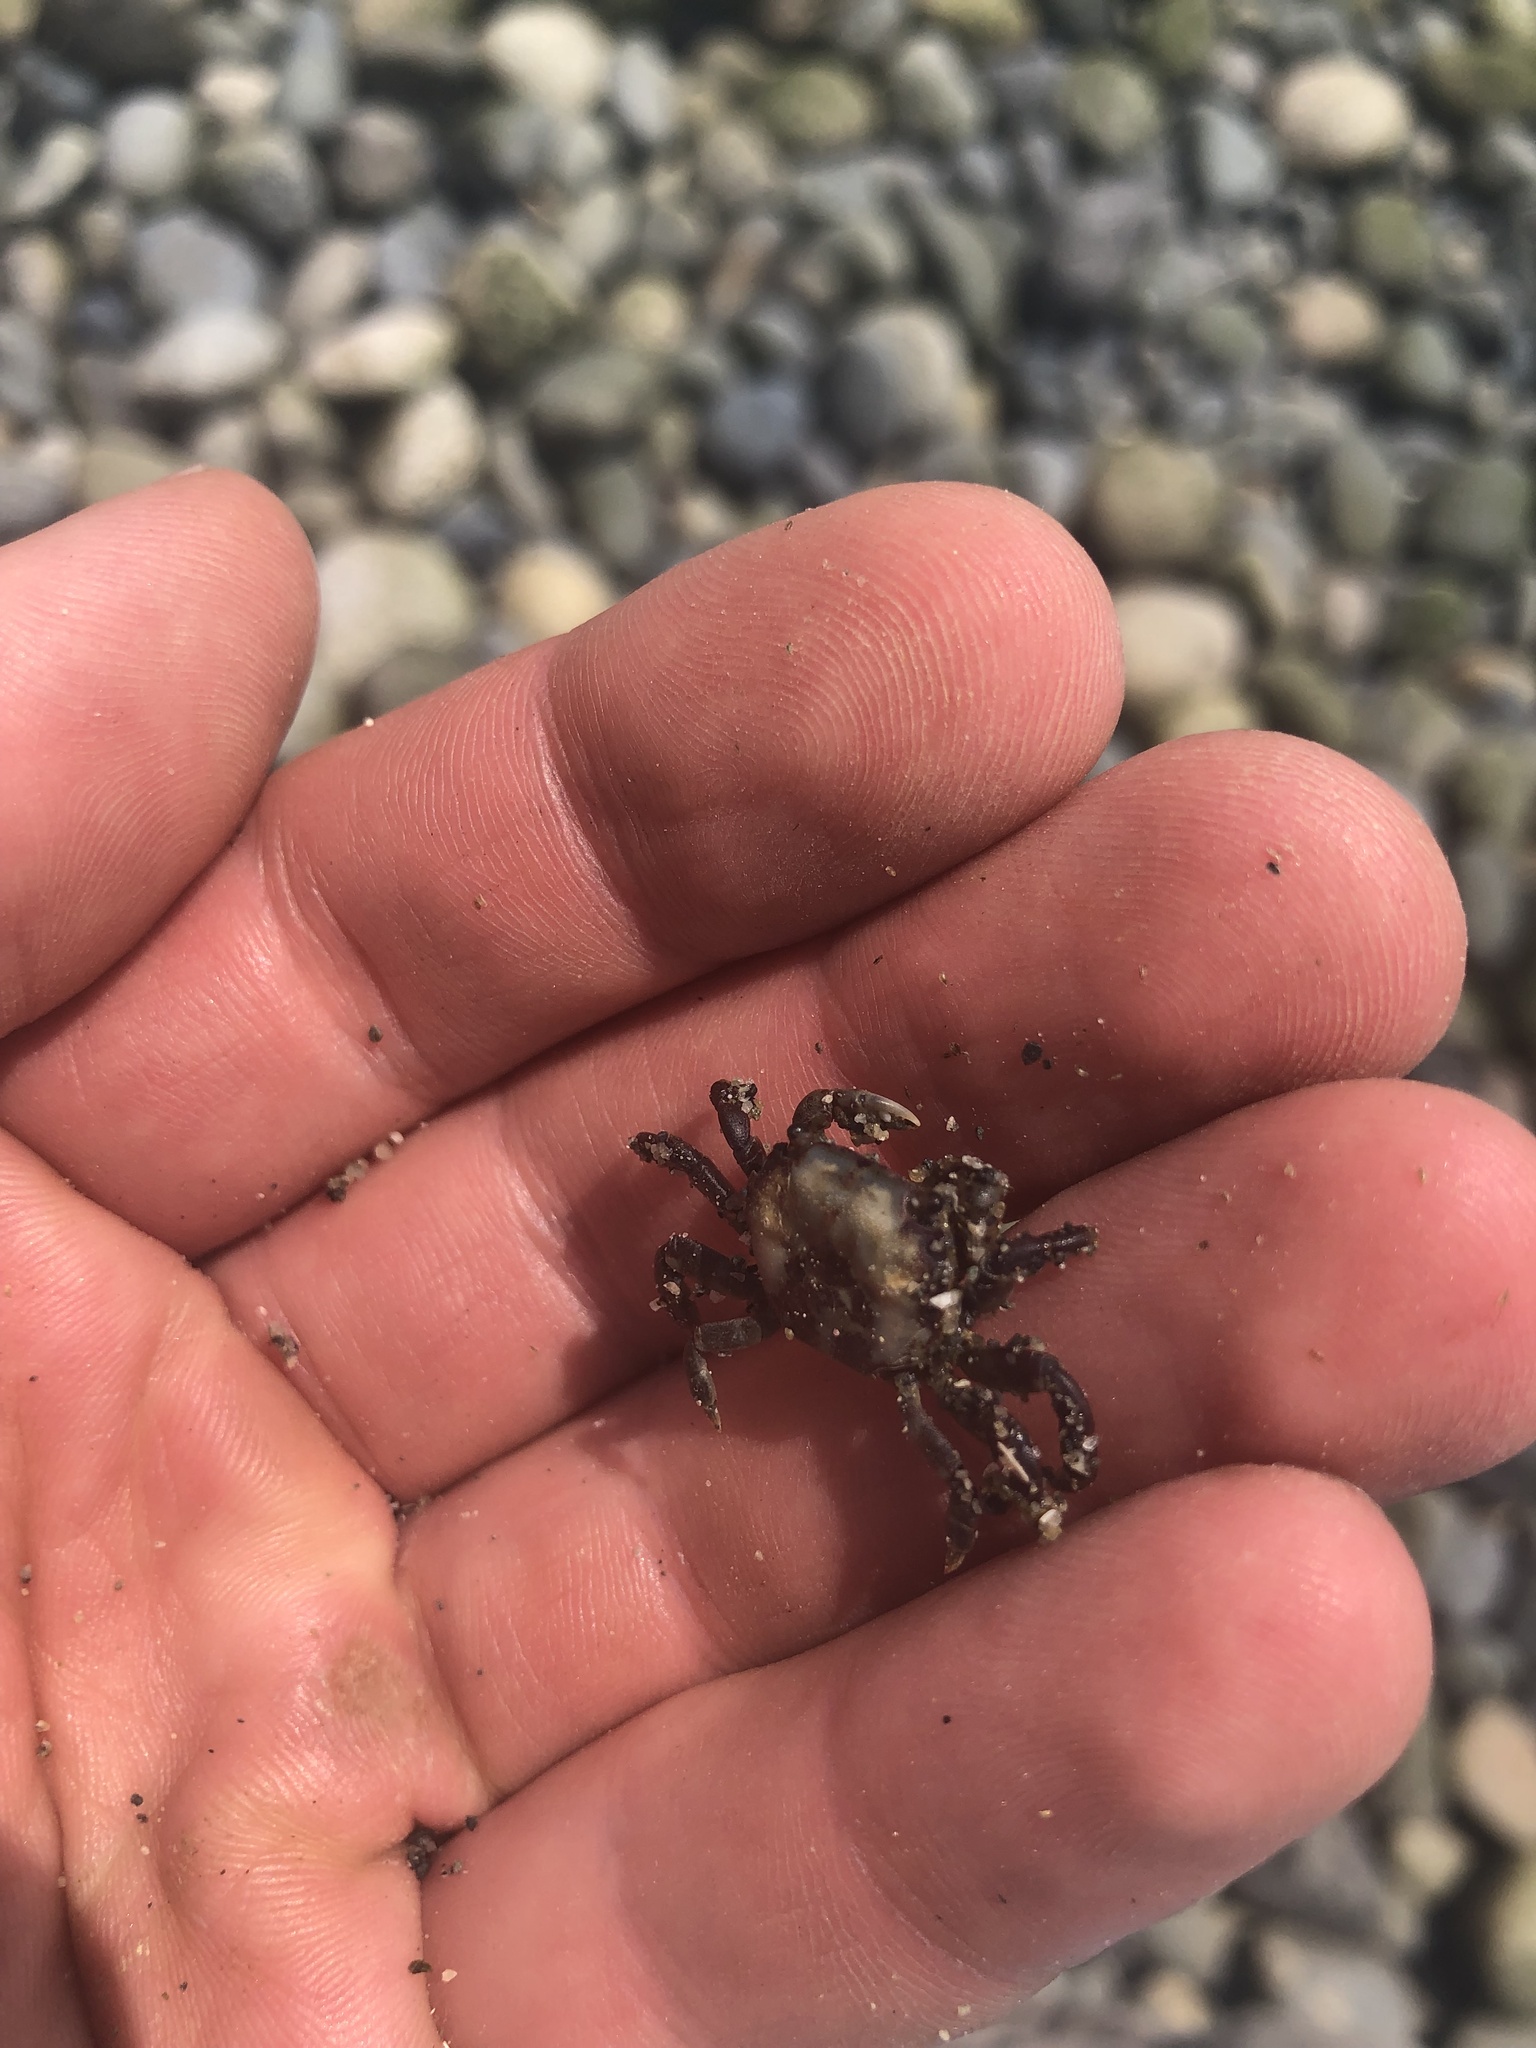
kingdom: Animalia
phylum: Arthropoda
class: Malacostraca
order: Decapoda
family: Varunidae
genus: Hemigrapsus
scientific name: Hemigrapsus nudus
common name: Purple shore crab
